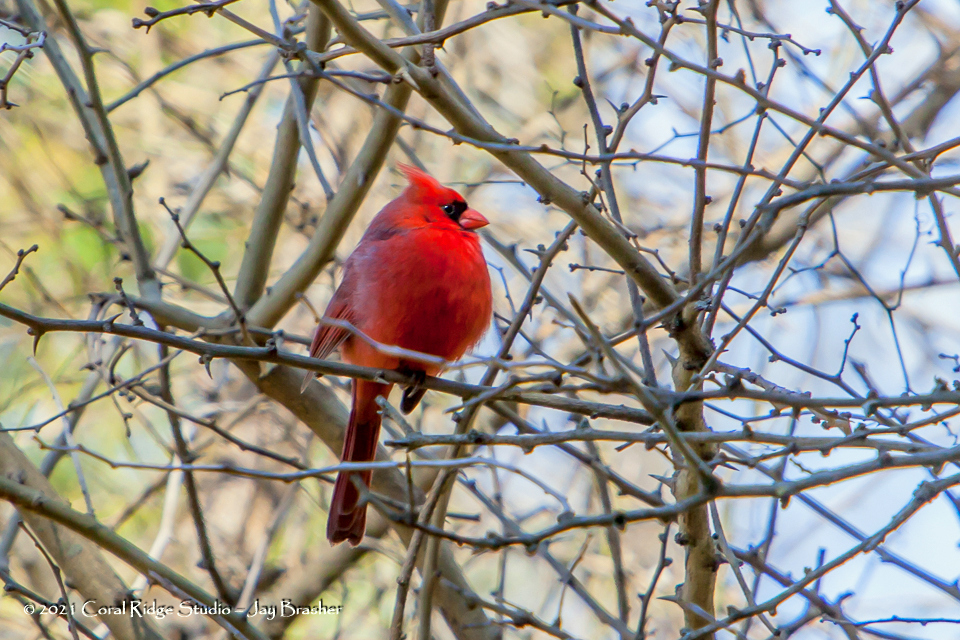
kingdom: Animalia
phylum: Chordata
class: Aves
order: Passeriformes
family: Cardinalidae
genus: Cardinalis
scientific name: Cardinalis cardinalis
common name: Northern cardinal
